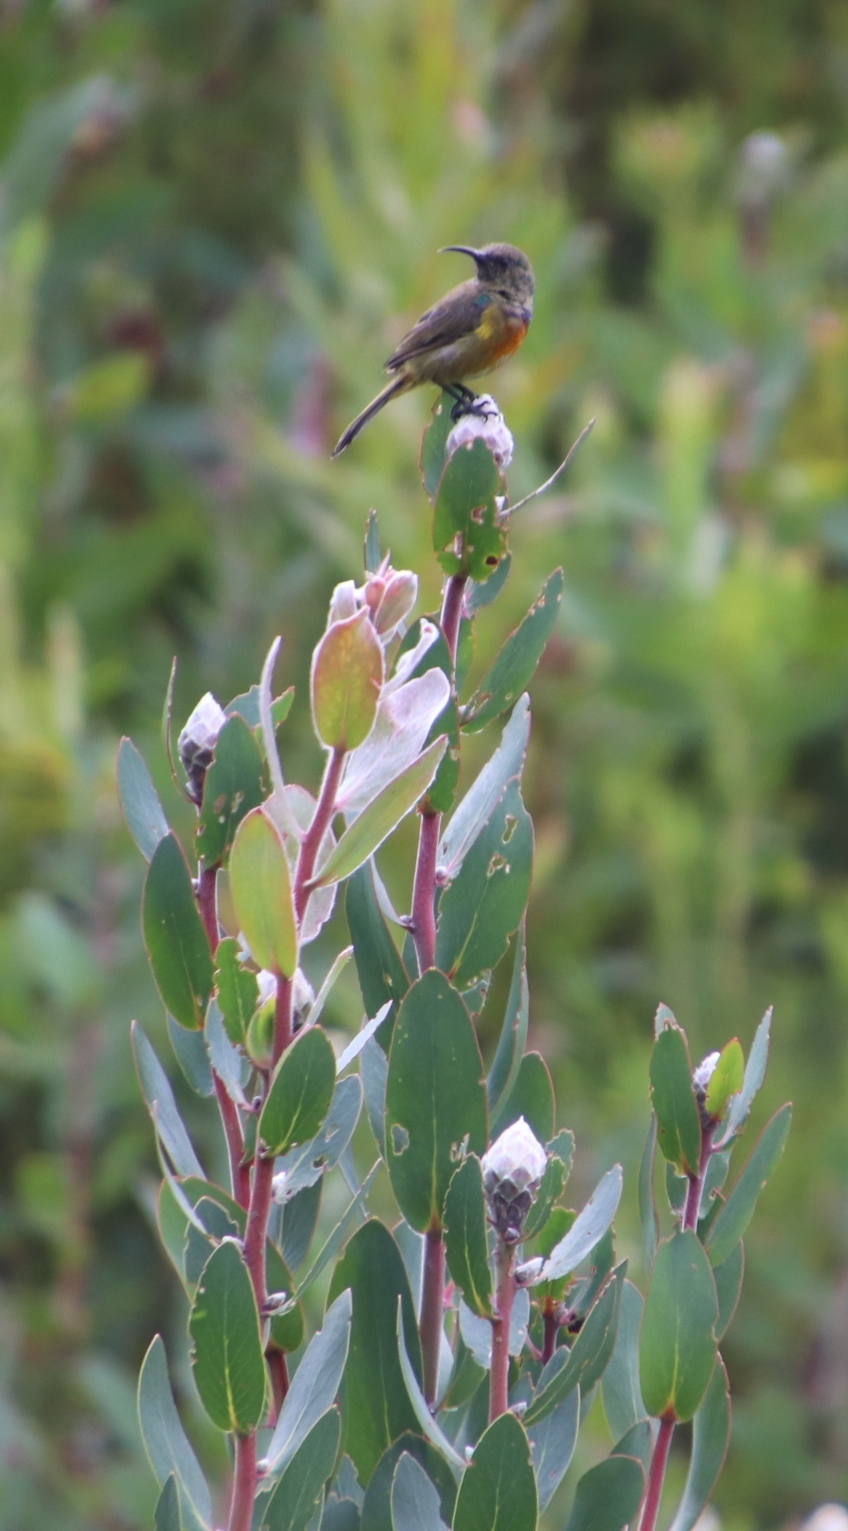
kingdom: Animalia
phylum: Chordata
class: Aves
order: Passeriformes
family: Nectariniidae
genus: Anthobaphes
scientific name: Anthobaphes violacea
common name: Orange-breasted sunbird
